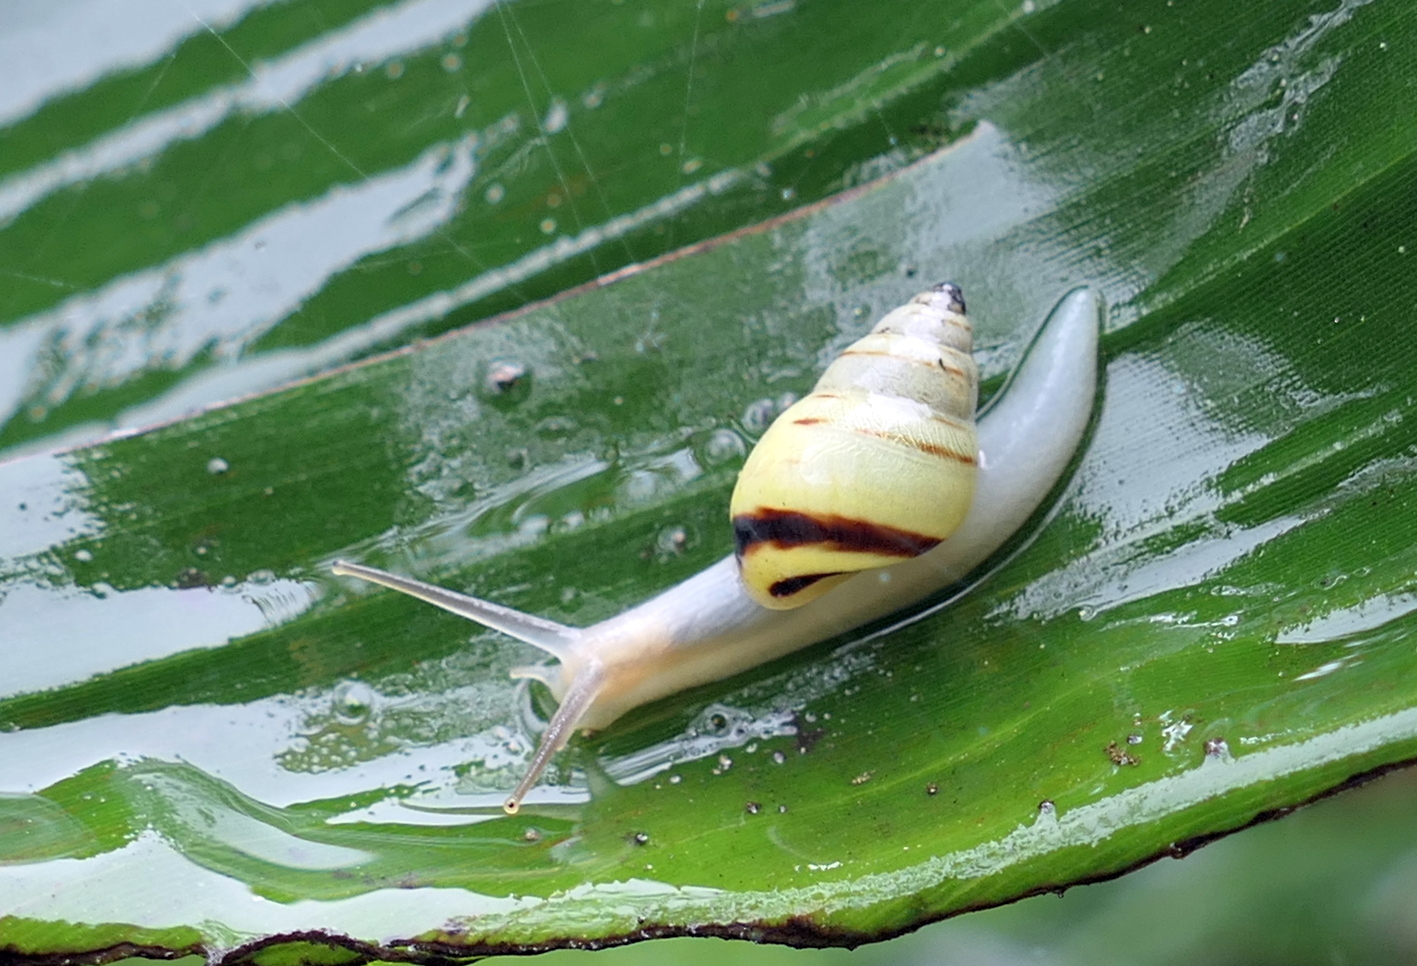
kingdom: Animalia
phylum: Mollusca
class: Gastropoda
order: Stylommatophora
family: Bulimulidae
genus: Drymaeus
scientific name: Drymaeus
